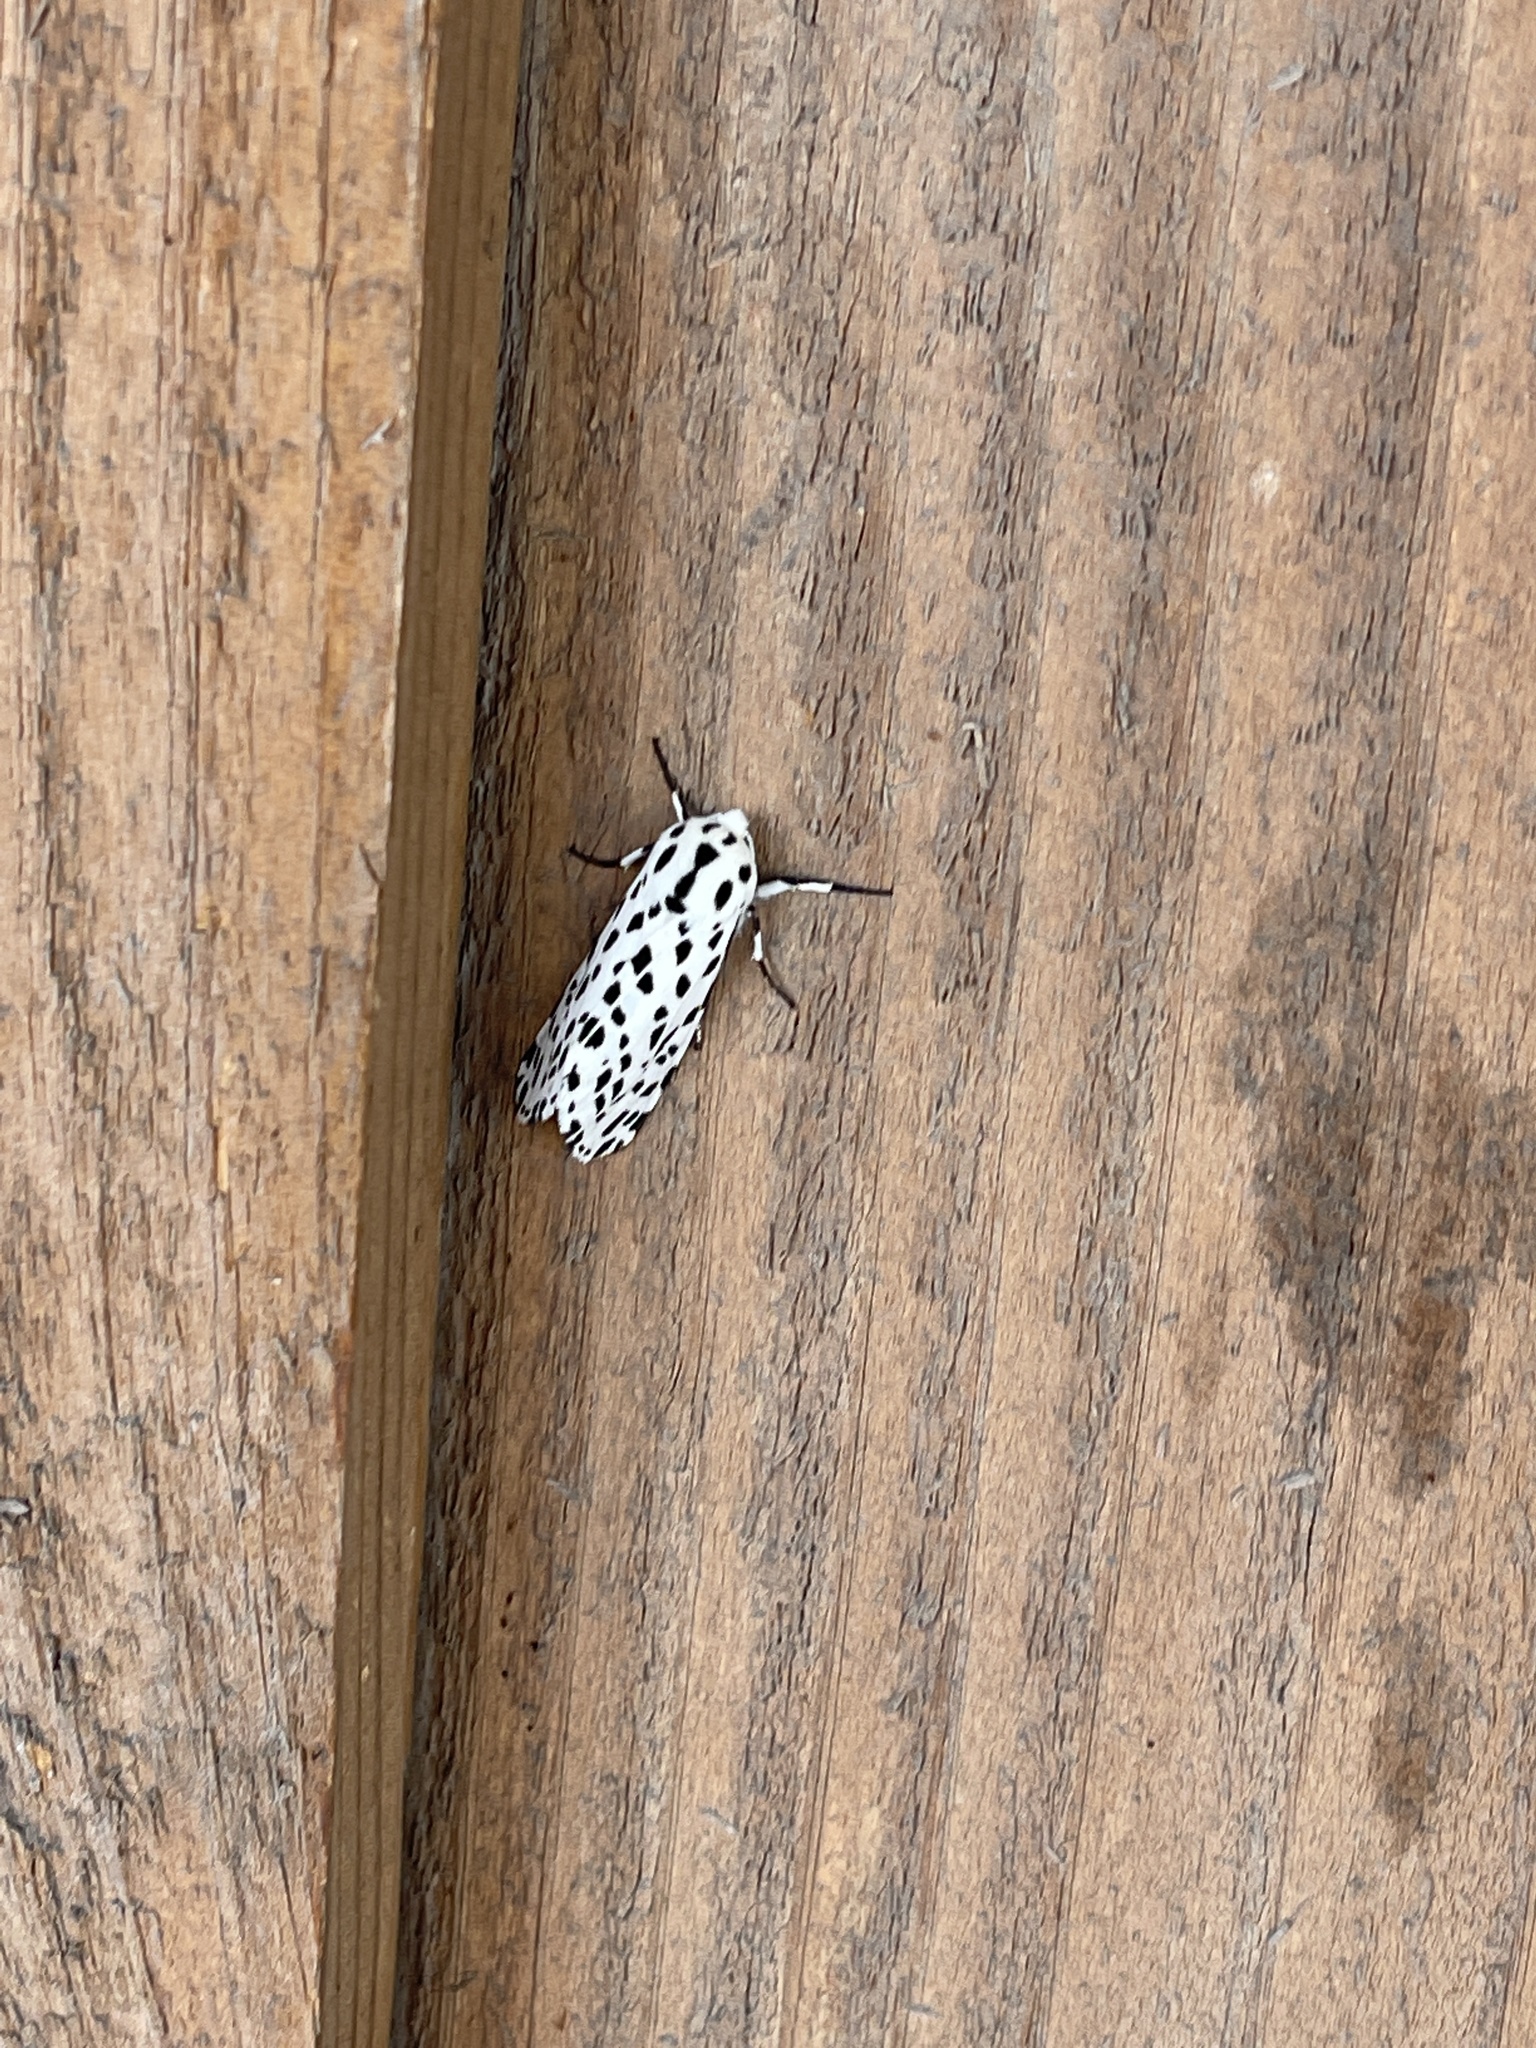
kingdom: Animalia
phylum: Arthropoda
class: Insecta
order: Lepidoptera
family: Erebidae
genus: Hypercompe
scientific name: Hypercompe permaculata
